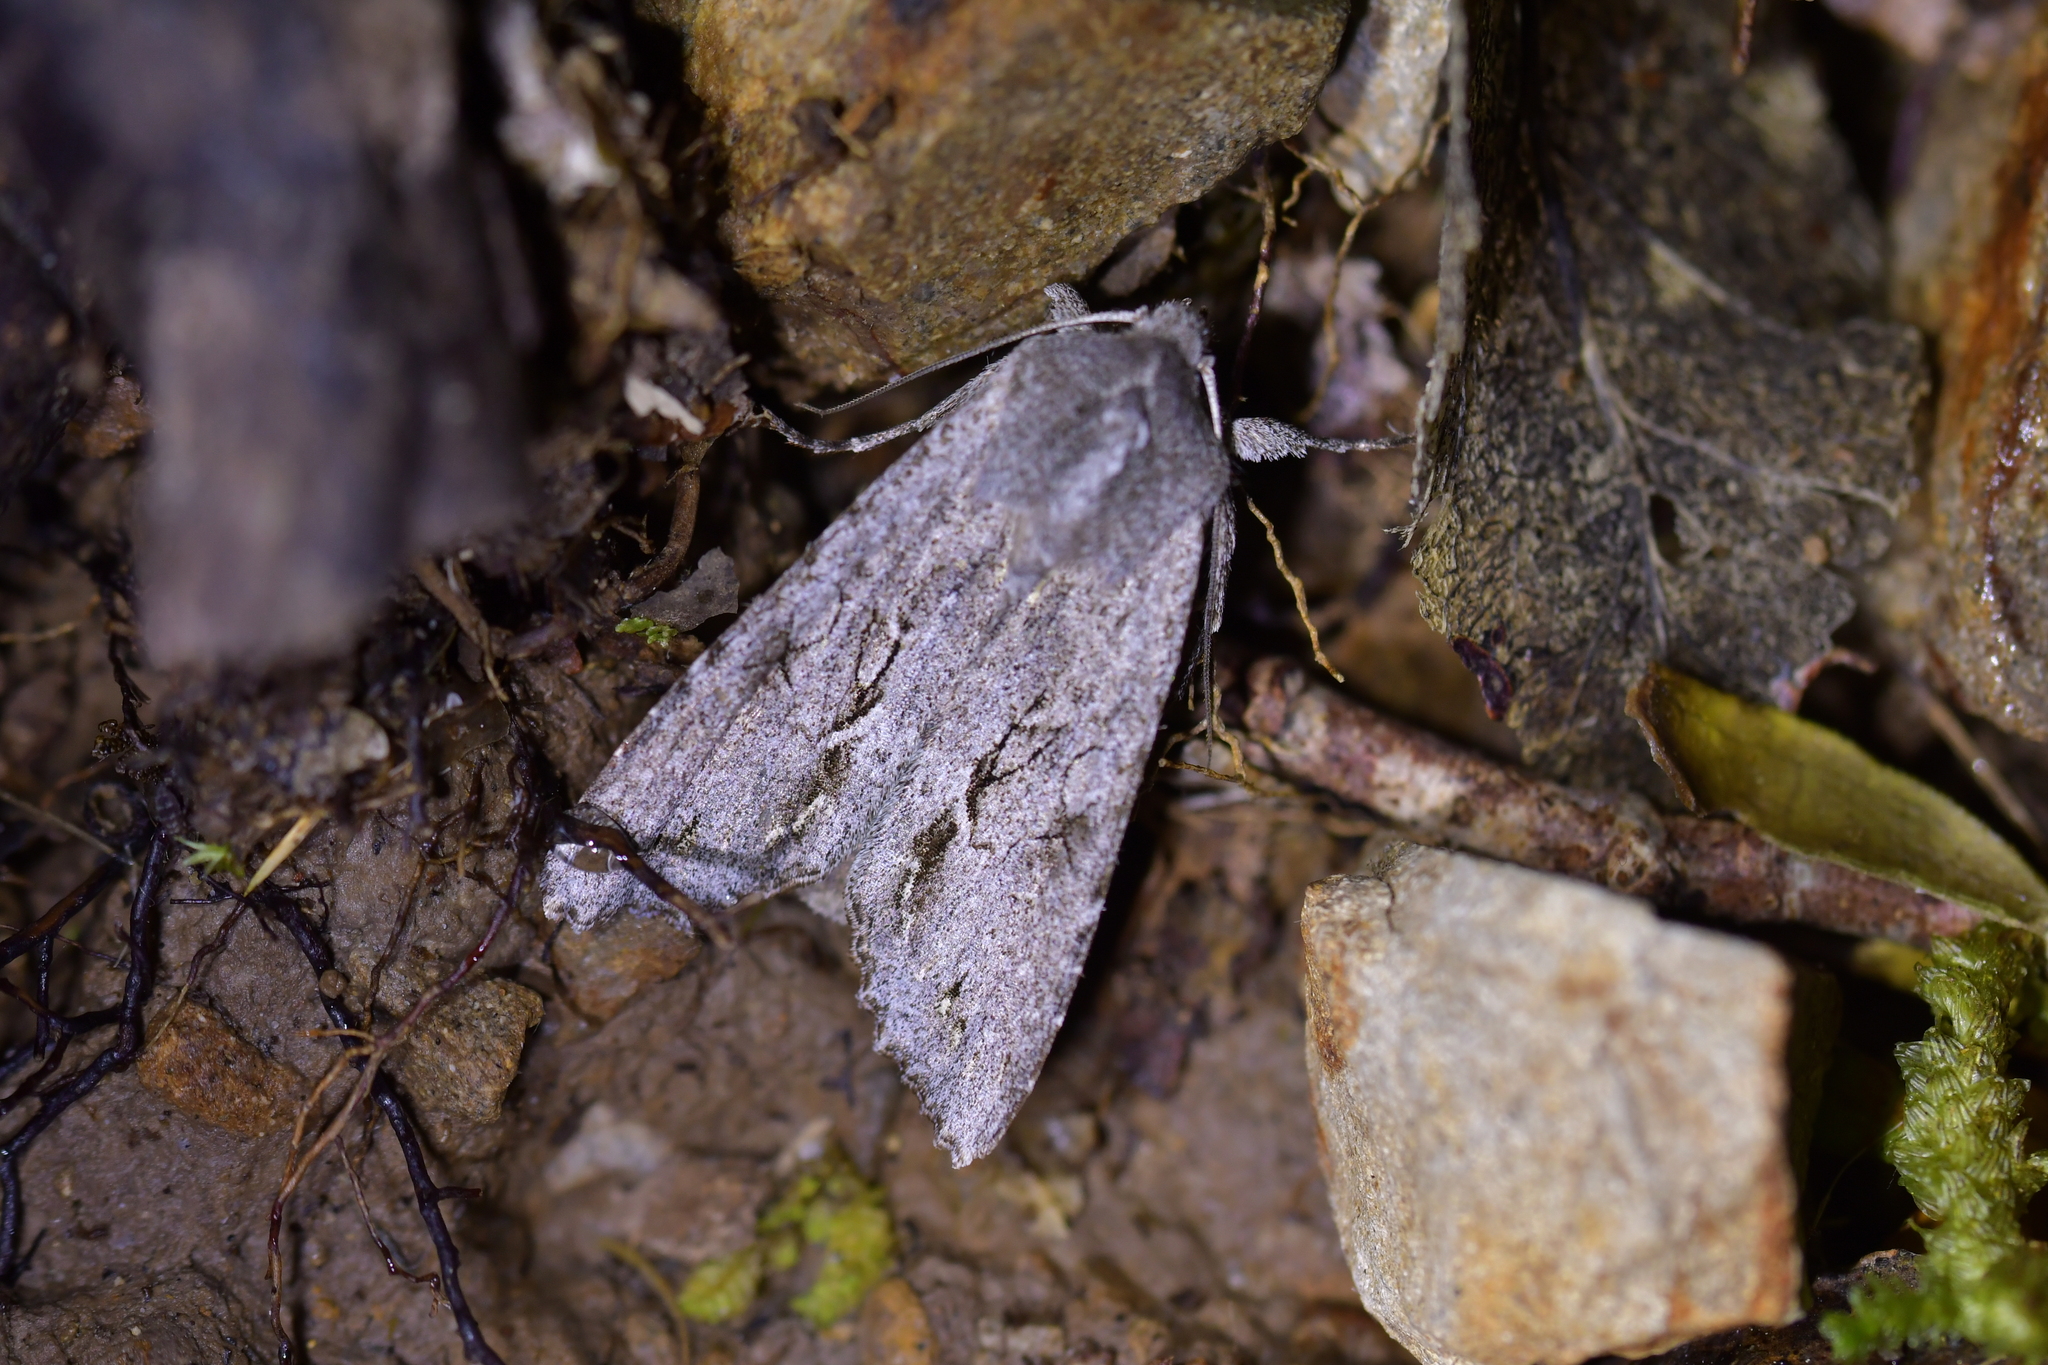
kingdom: Animalia
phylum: Arthropoda
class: Insecta
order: Lepidoptera
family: Noctuidae
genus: Ichneutica
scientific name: Ichneutica
